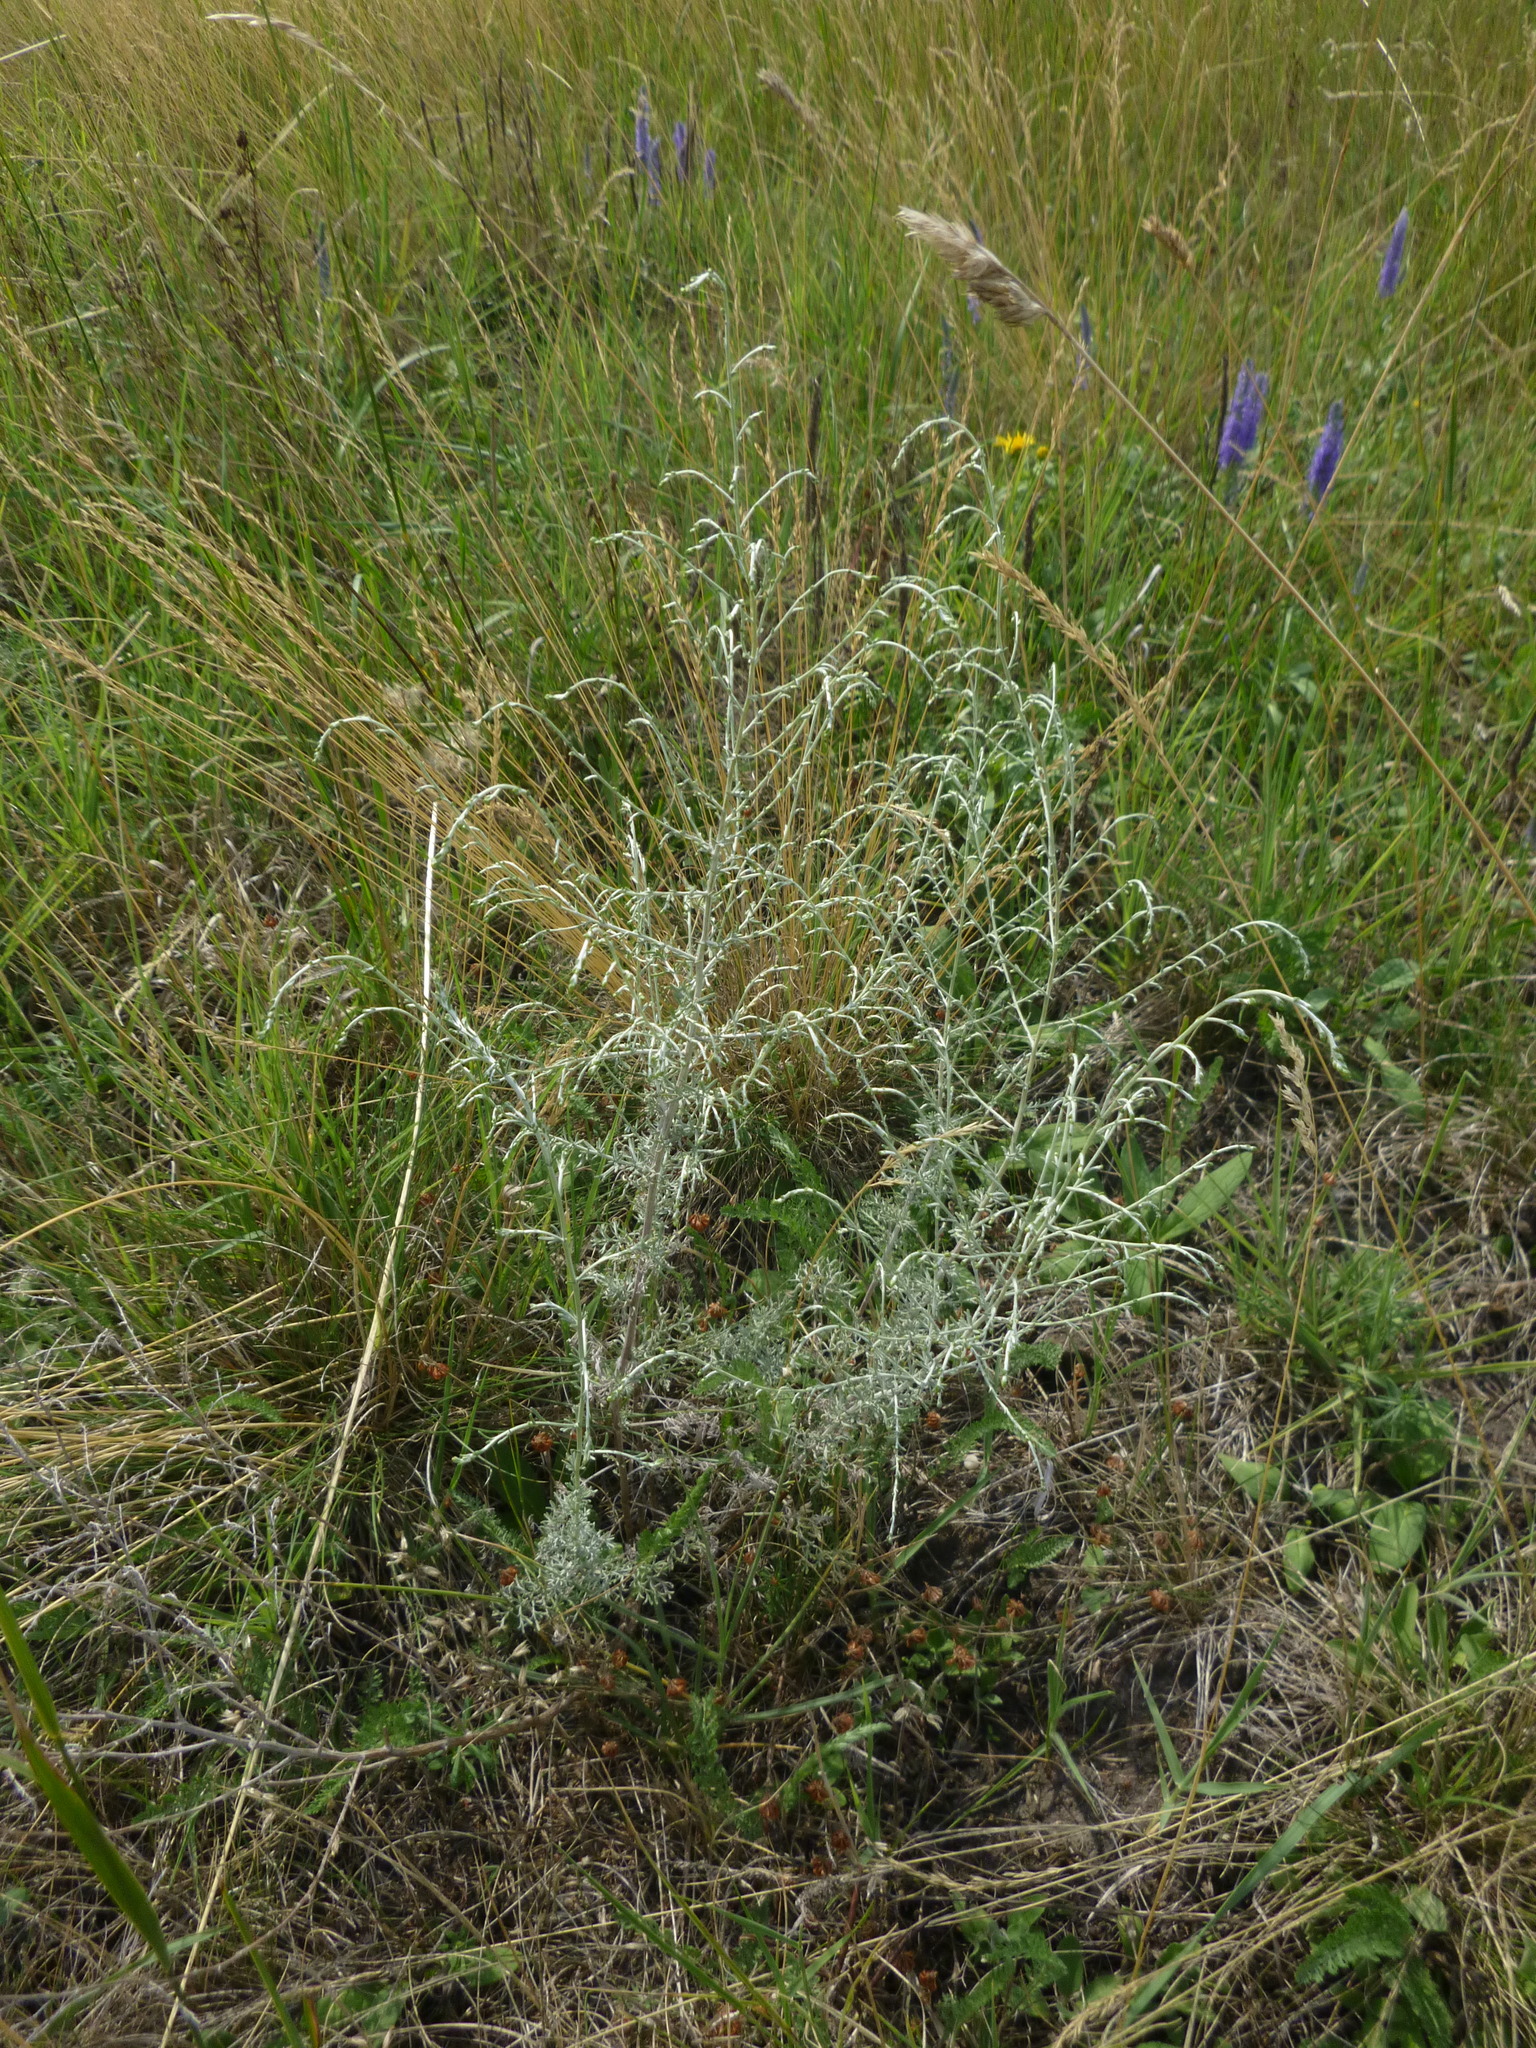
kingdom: Plantae
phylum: Tracheophyta
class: Magnoliopsida
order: Asterales
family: Asteraceae
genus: Artemisia
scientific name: Artemisia pontica
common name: Roman wormwood
